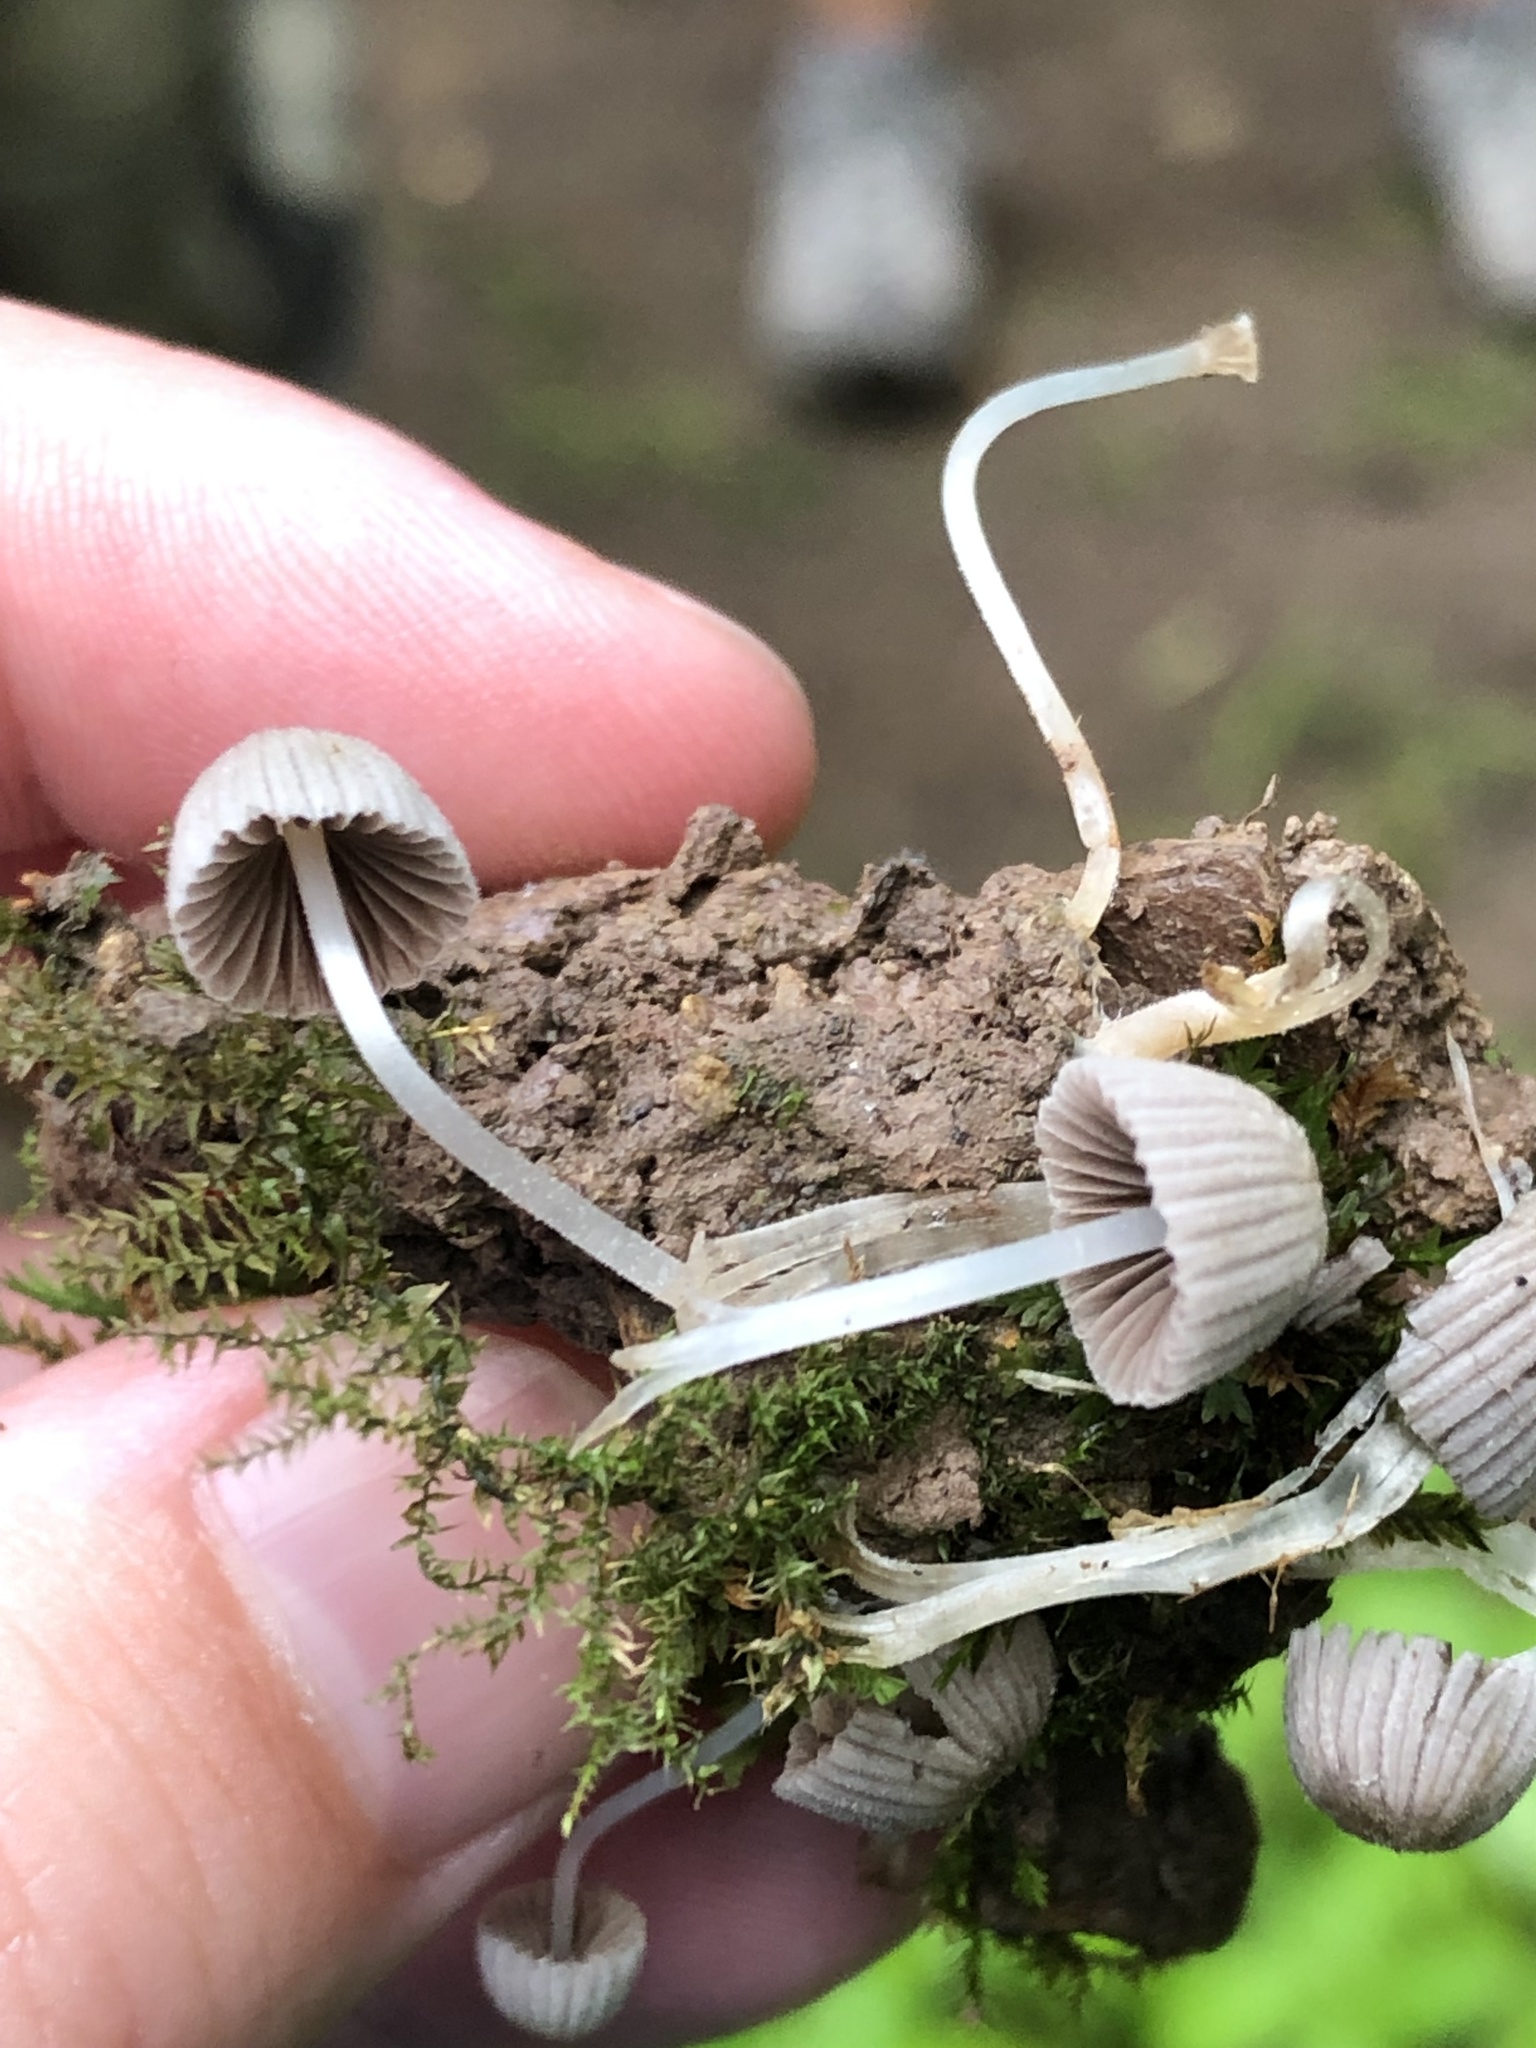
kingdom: Fungi
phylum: Basidiomycota
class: Agaricomycetes
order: Agaricales
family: Psathyrellaceae
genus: Coprinellus
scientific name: Coprinellus disseminatus
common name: Fairies' bonnets
